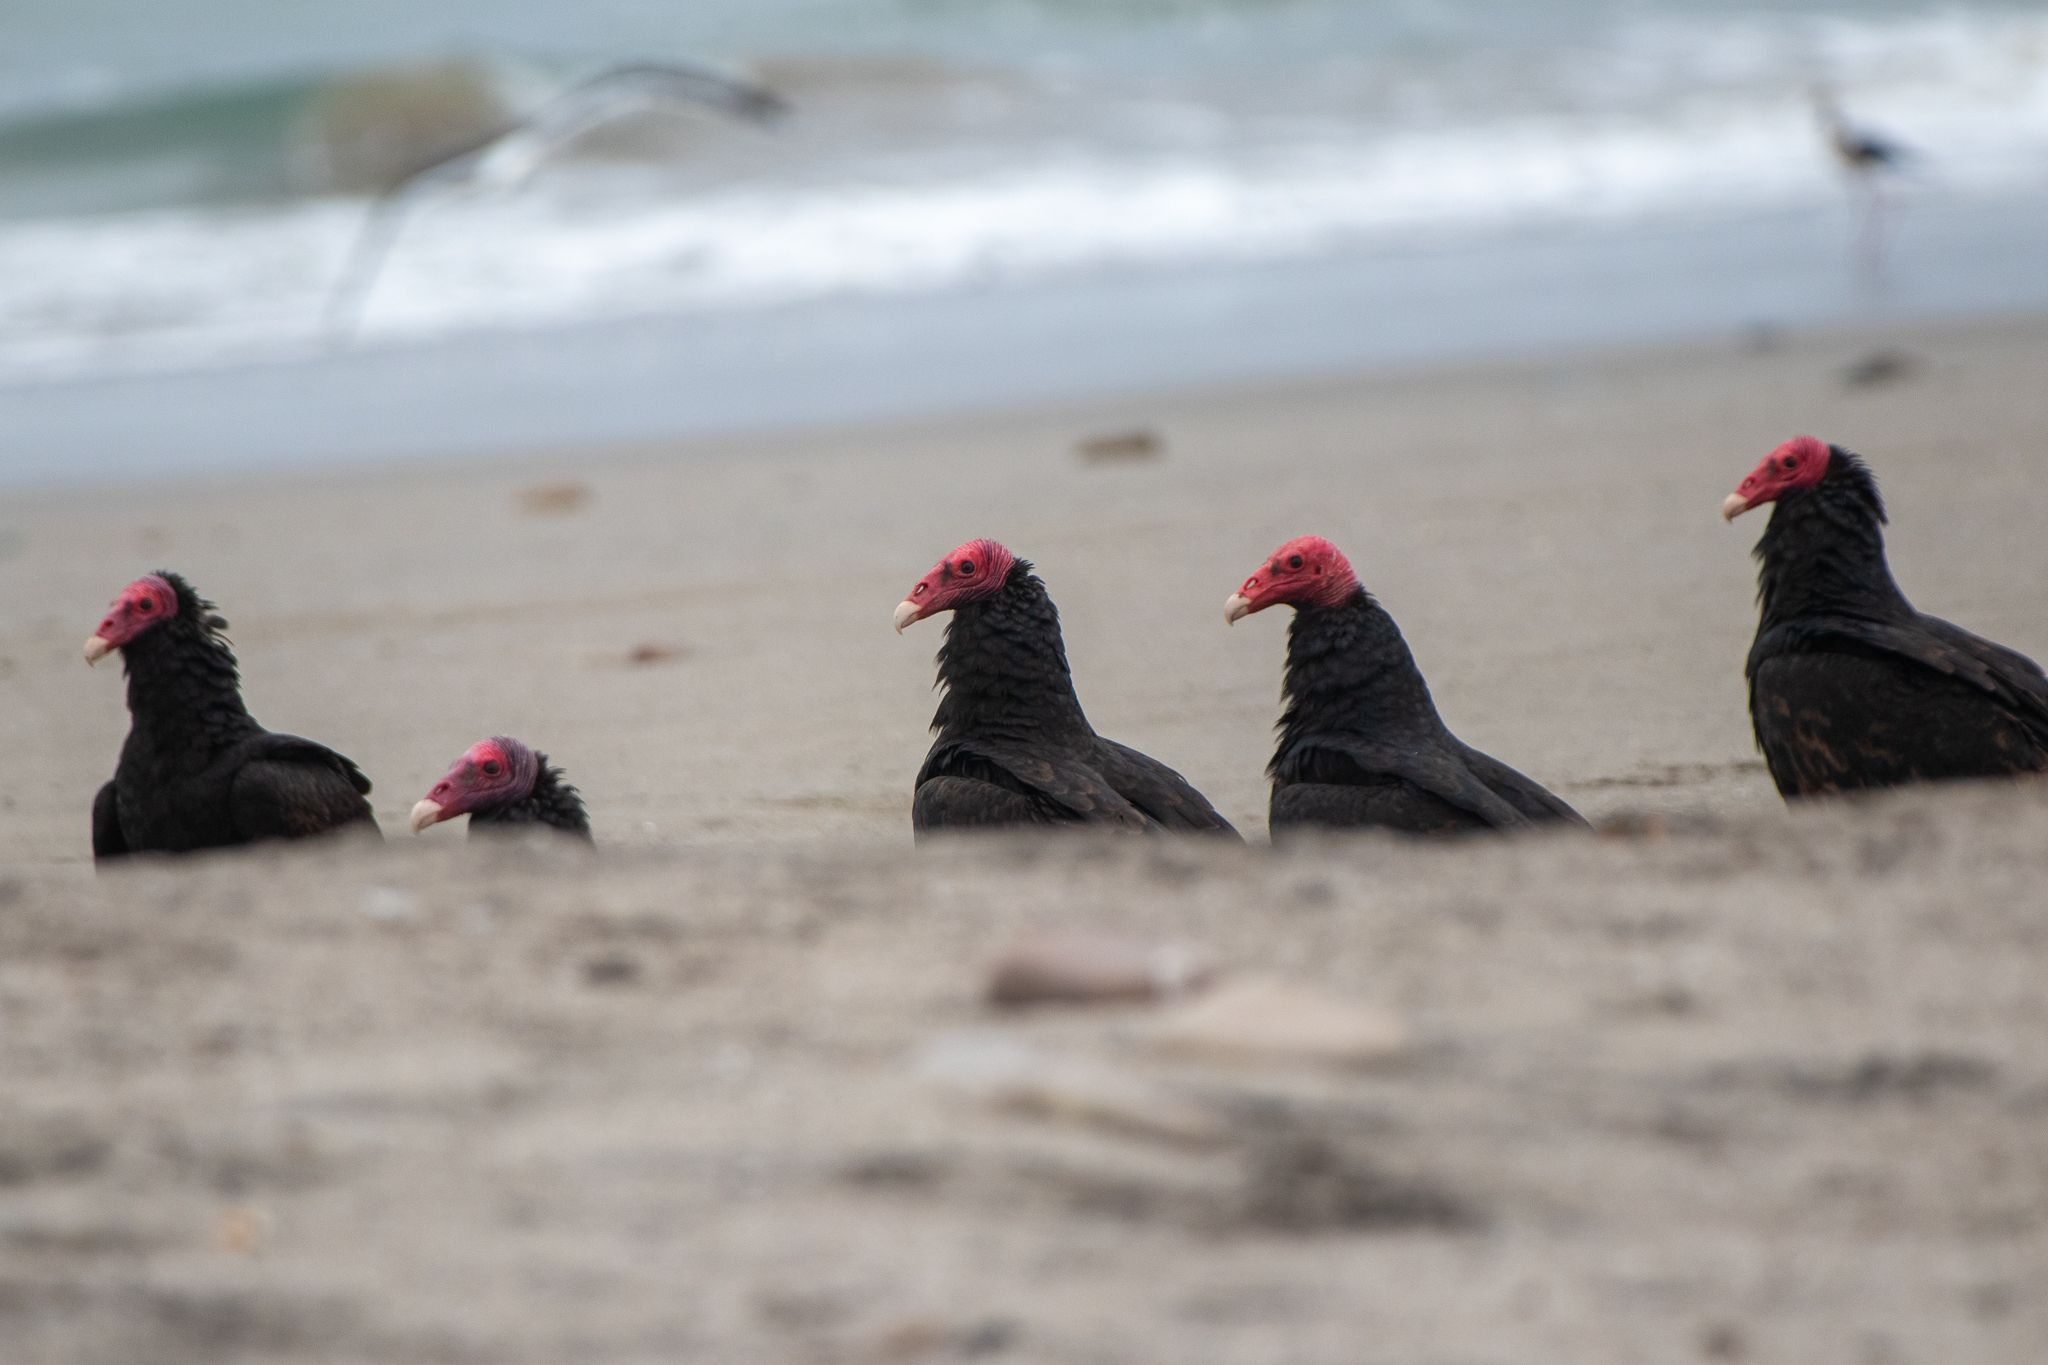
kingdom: Animalia
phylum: Chordata
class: Aves
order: Accipitriformes
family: Cathartidae
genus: Cathartes
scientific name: Cathartes aura
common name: Turkey vulture
